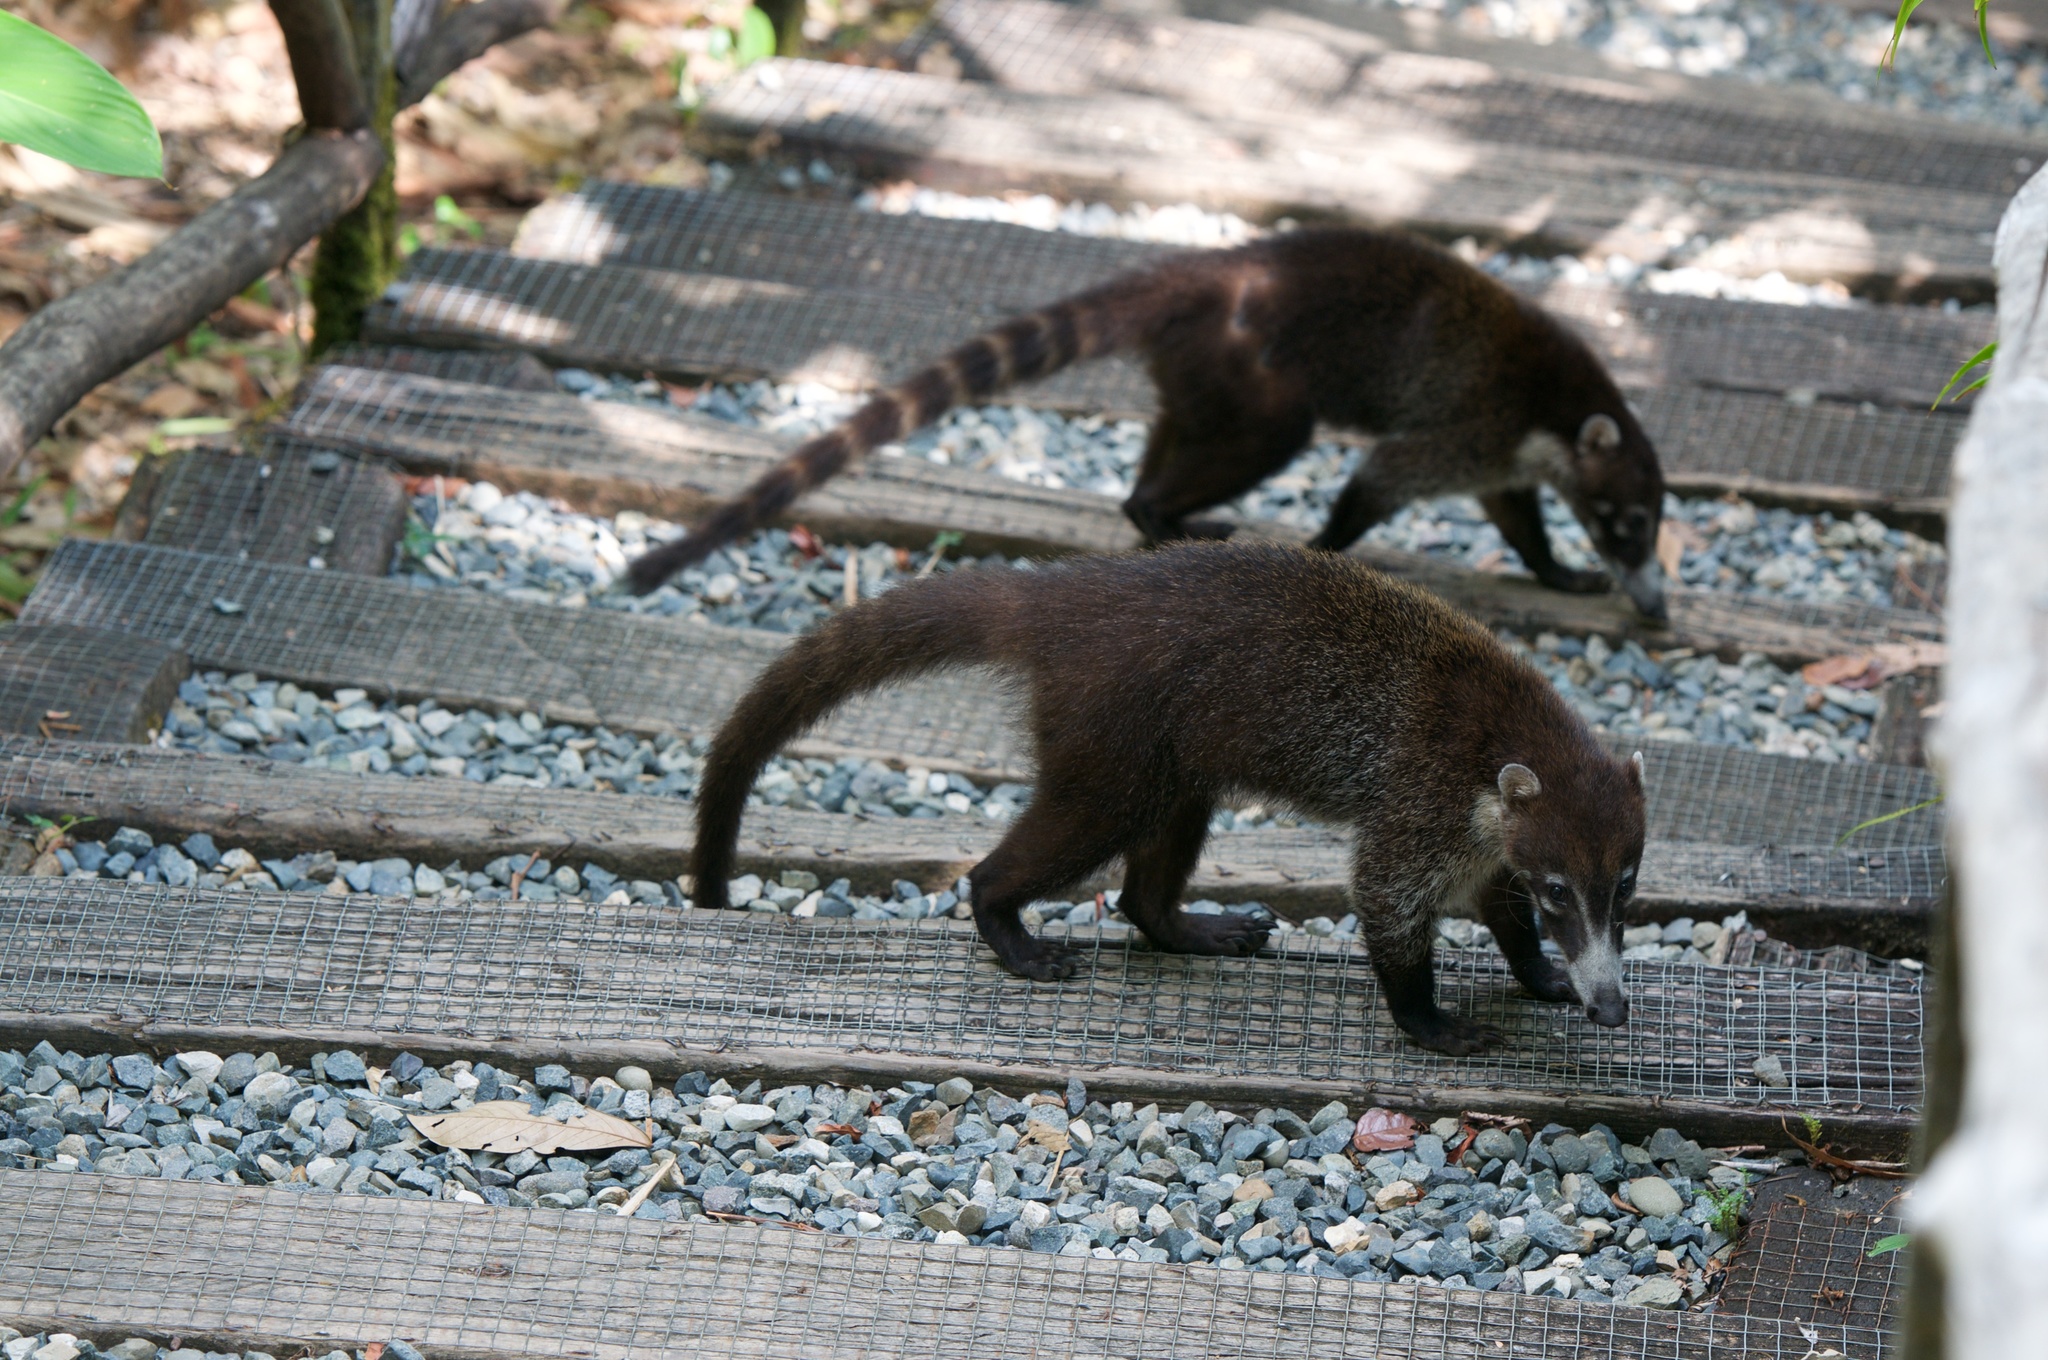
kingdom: Animalia
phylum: Chordata
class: Mammalia
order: Carnivora
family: Procyonidae
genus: Nasua
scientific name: Nasua narica
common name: White-nosed coati
